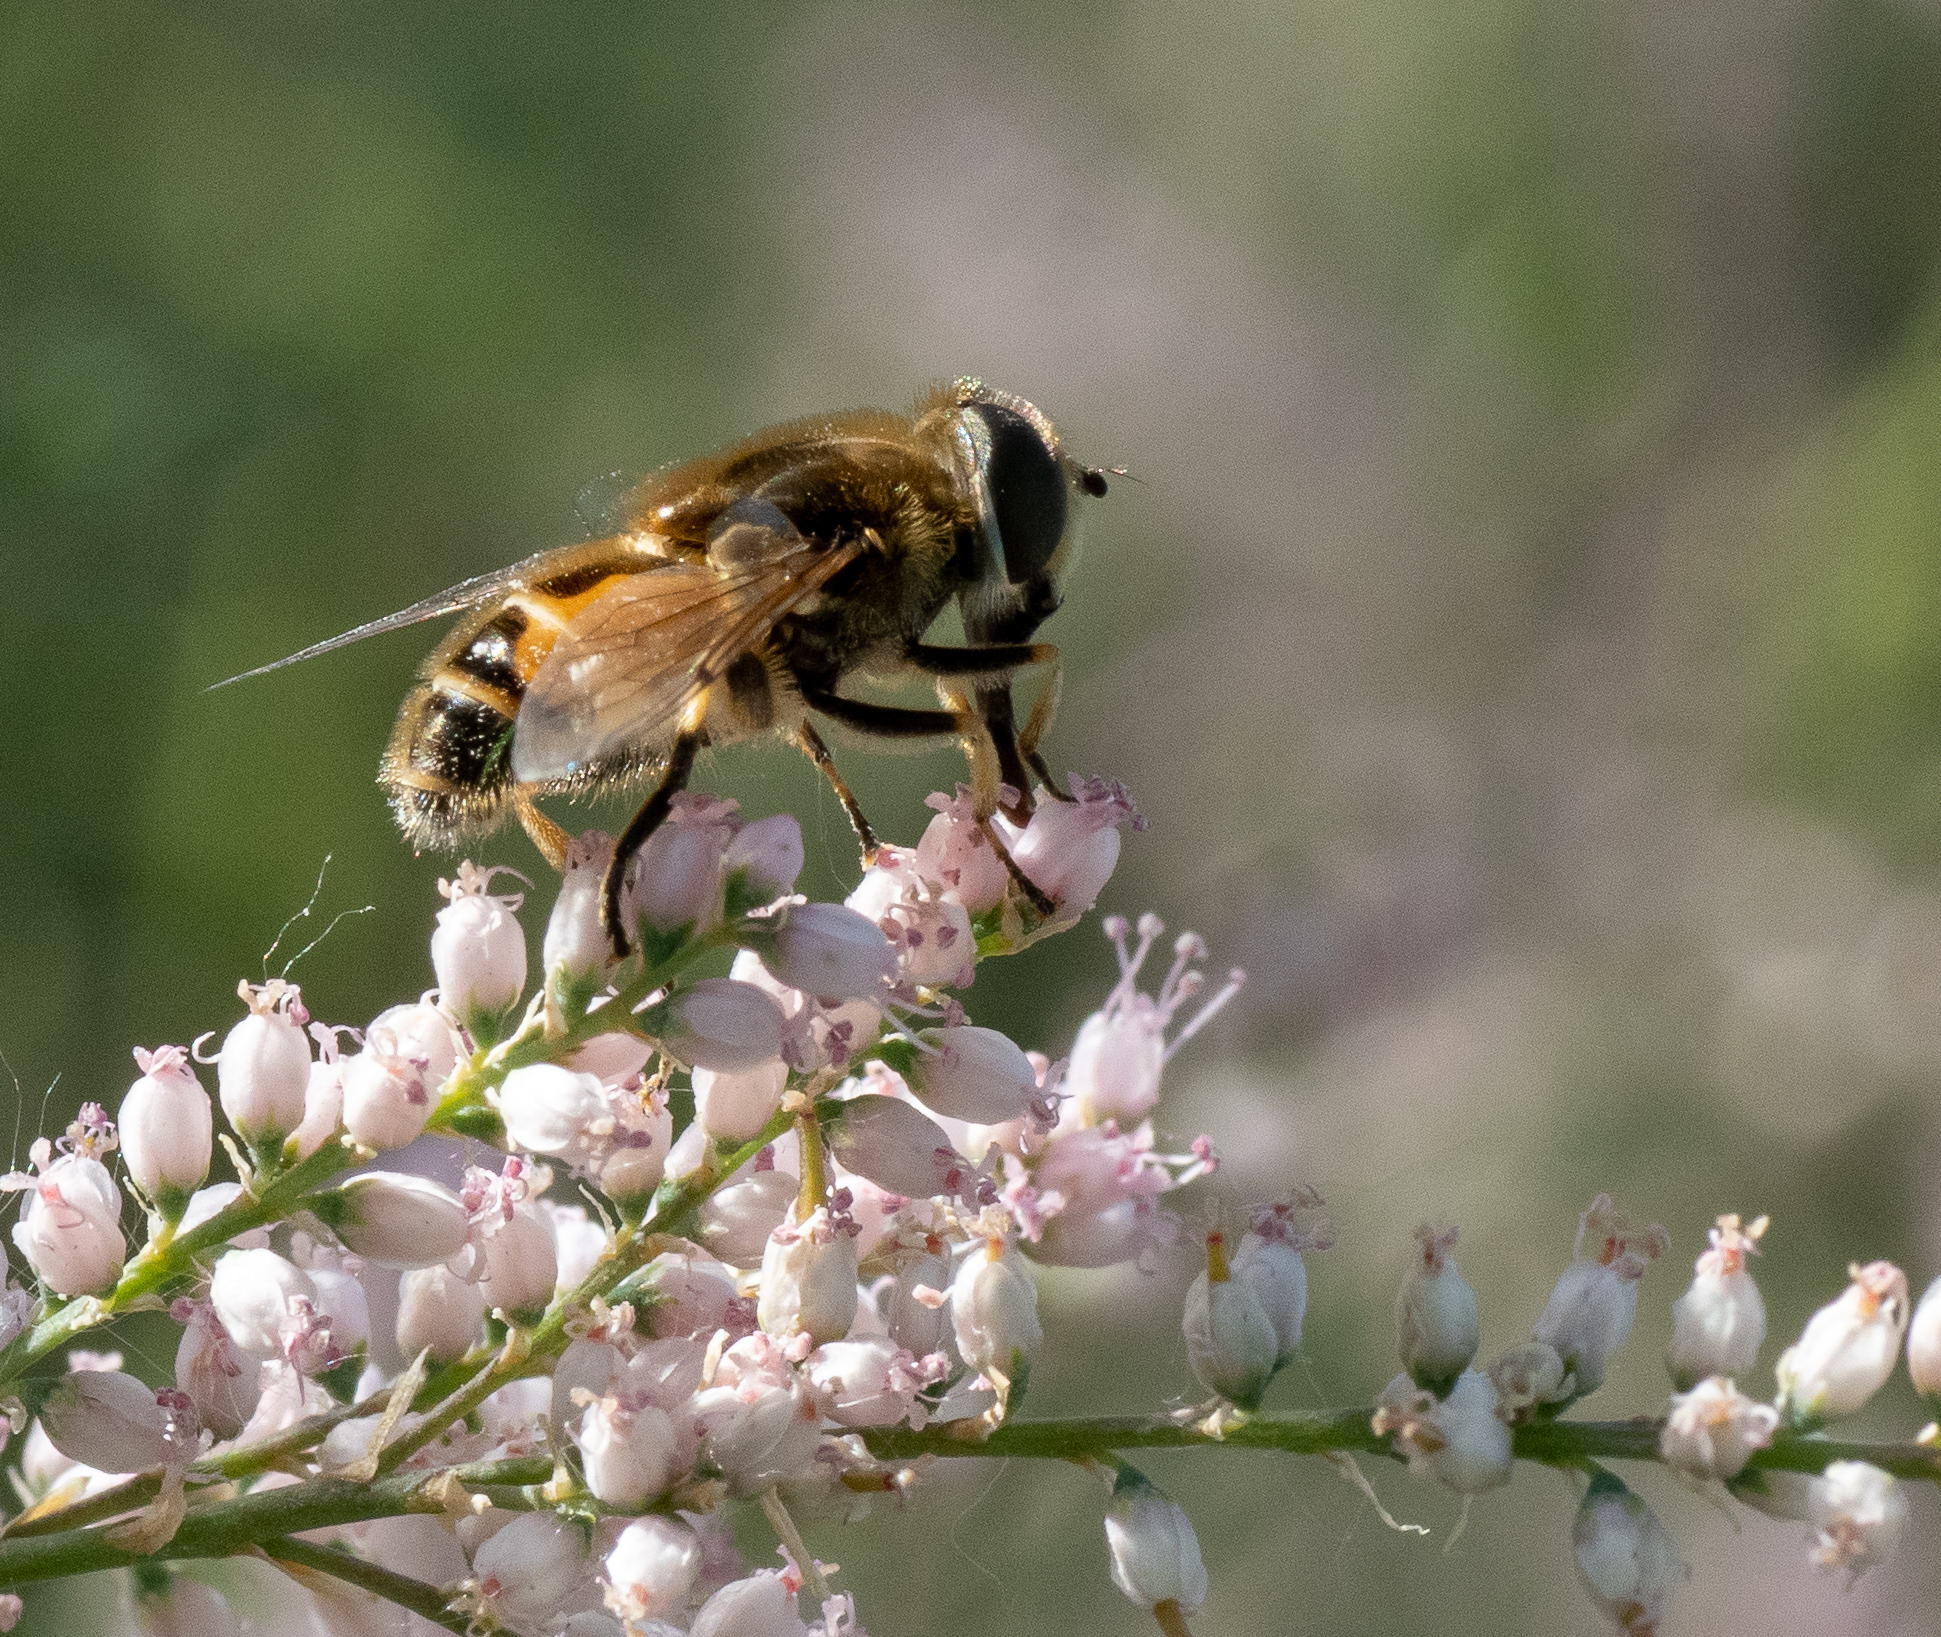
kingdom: Animalia
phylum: Arthropoda
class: Insecta
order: Diptera
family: Syrphidae
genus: Eristalis
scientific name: Eristalis arbustorum
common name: Hover fly
